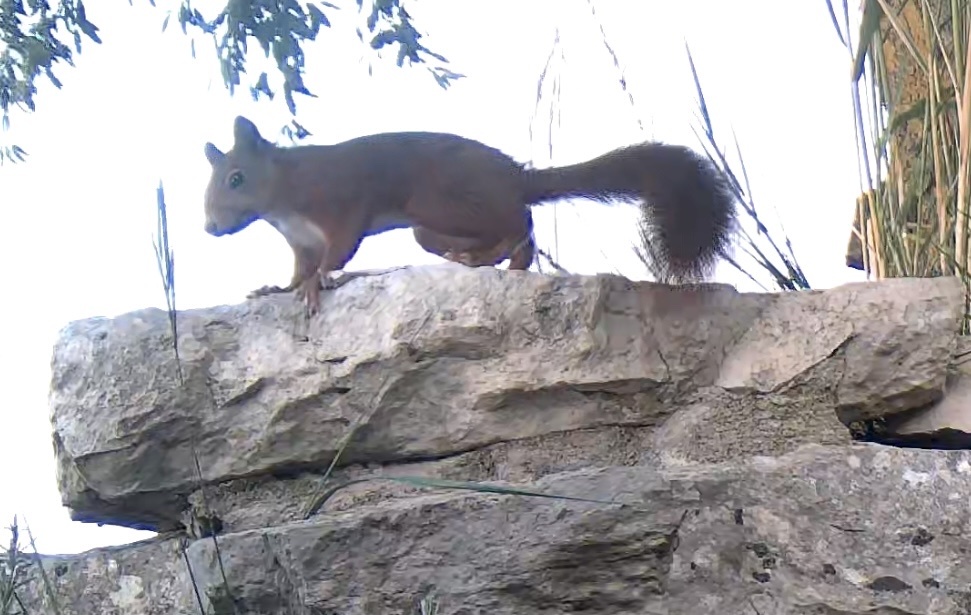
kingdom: Animalia
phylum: Chordata
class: Mammalia
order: Rodentia
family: Sciuridae
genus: Sciurus
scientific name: Sciurus vulgaris
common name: Eurasian red squirrel
